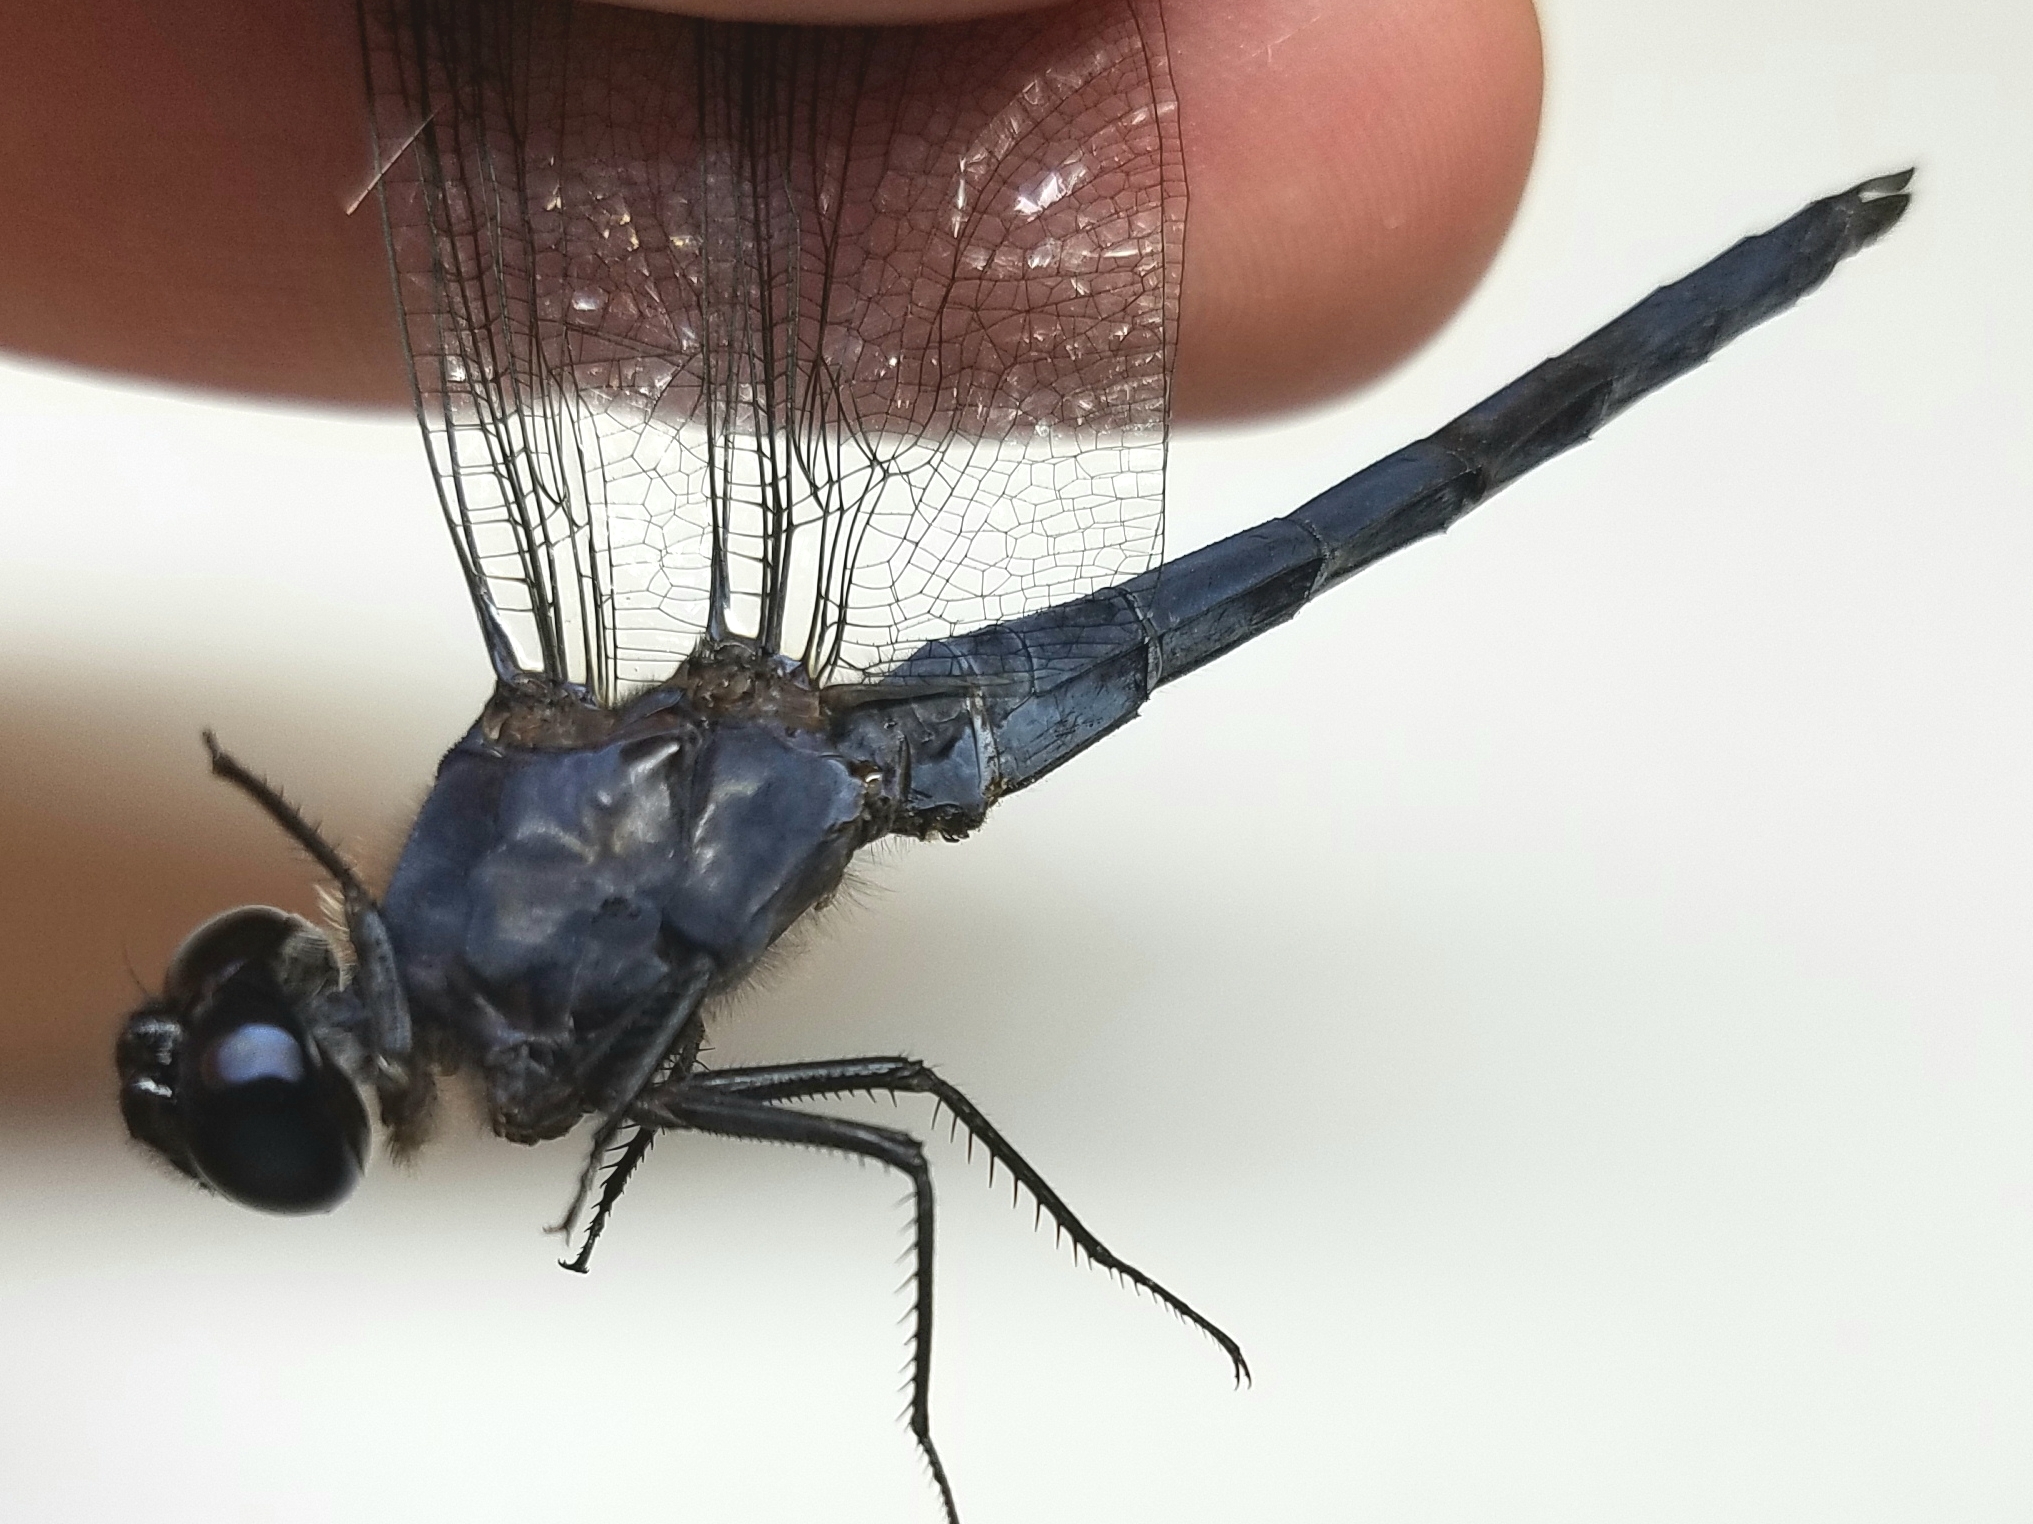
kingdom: Animalia
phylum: Arthropoda
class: Insecta
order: Odonata
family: Libellulidae
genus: Libellula
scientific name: Libellula incesta
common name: Slaty skimmer
